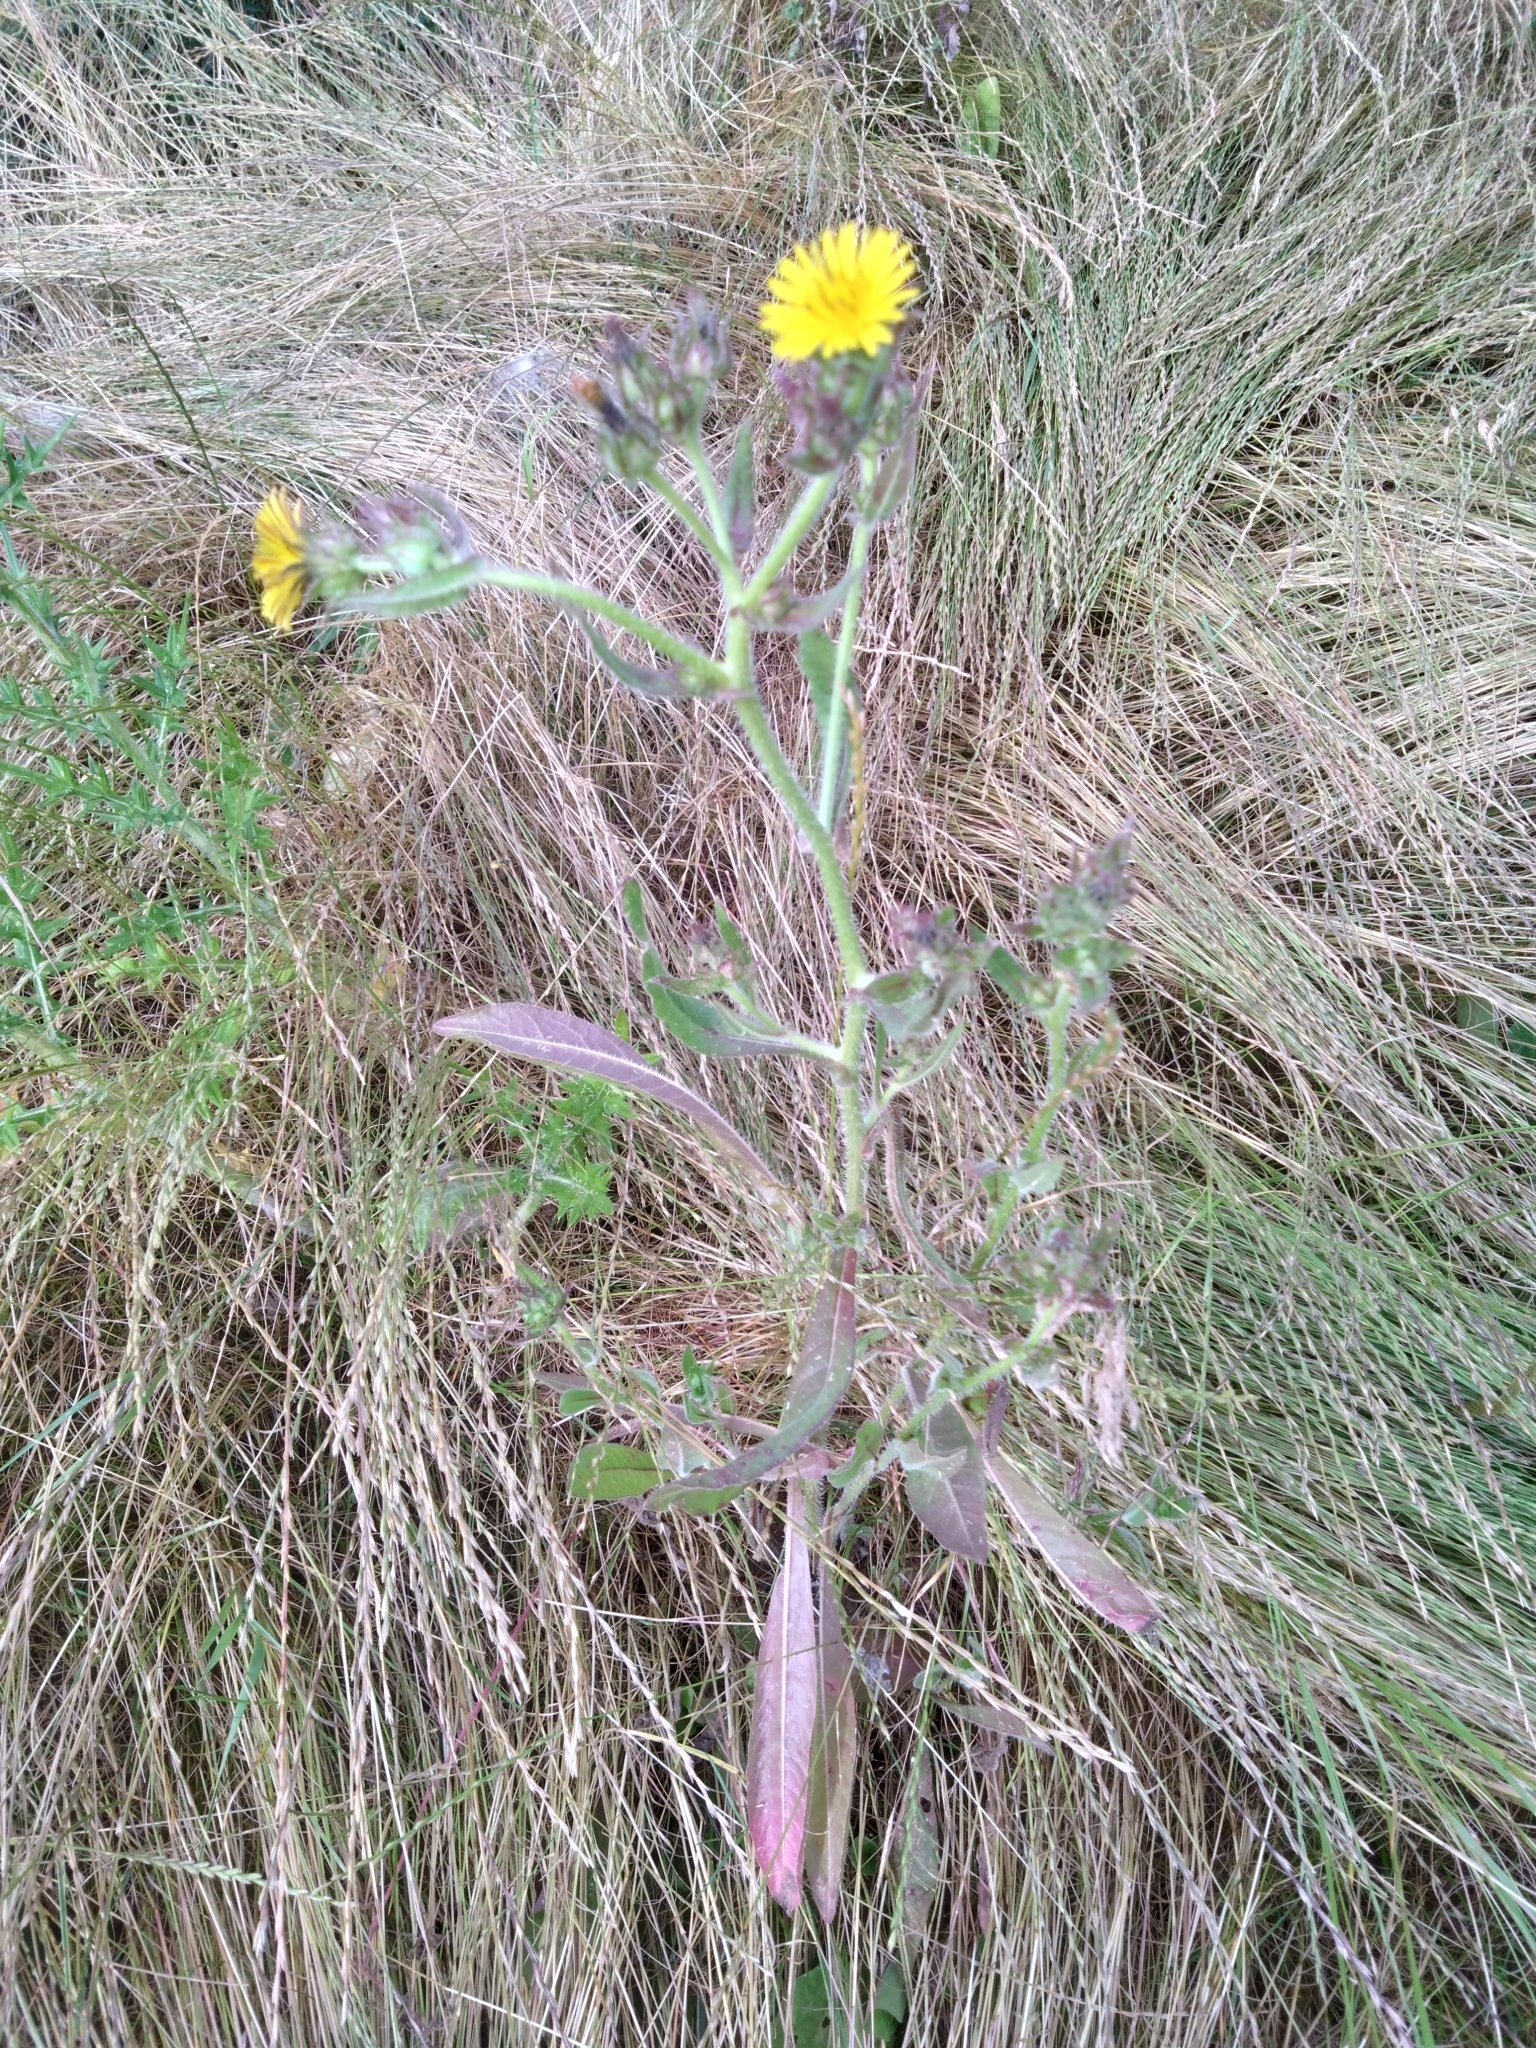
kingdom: Plantae
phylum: Tracheophyta
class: Magnoliopsida
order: Asterales
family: Asteraceae
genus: Helminthotheca
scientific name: Helminthotheca echioides
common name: Ox-tongue
